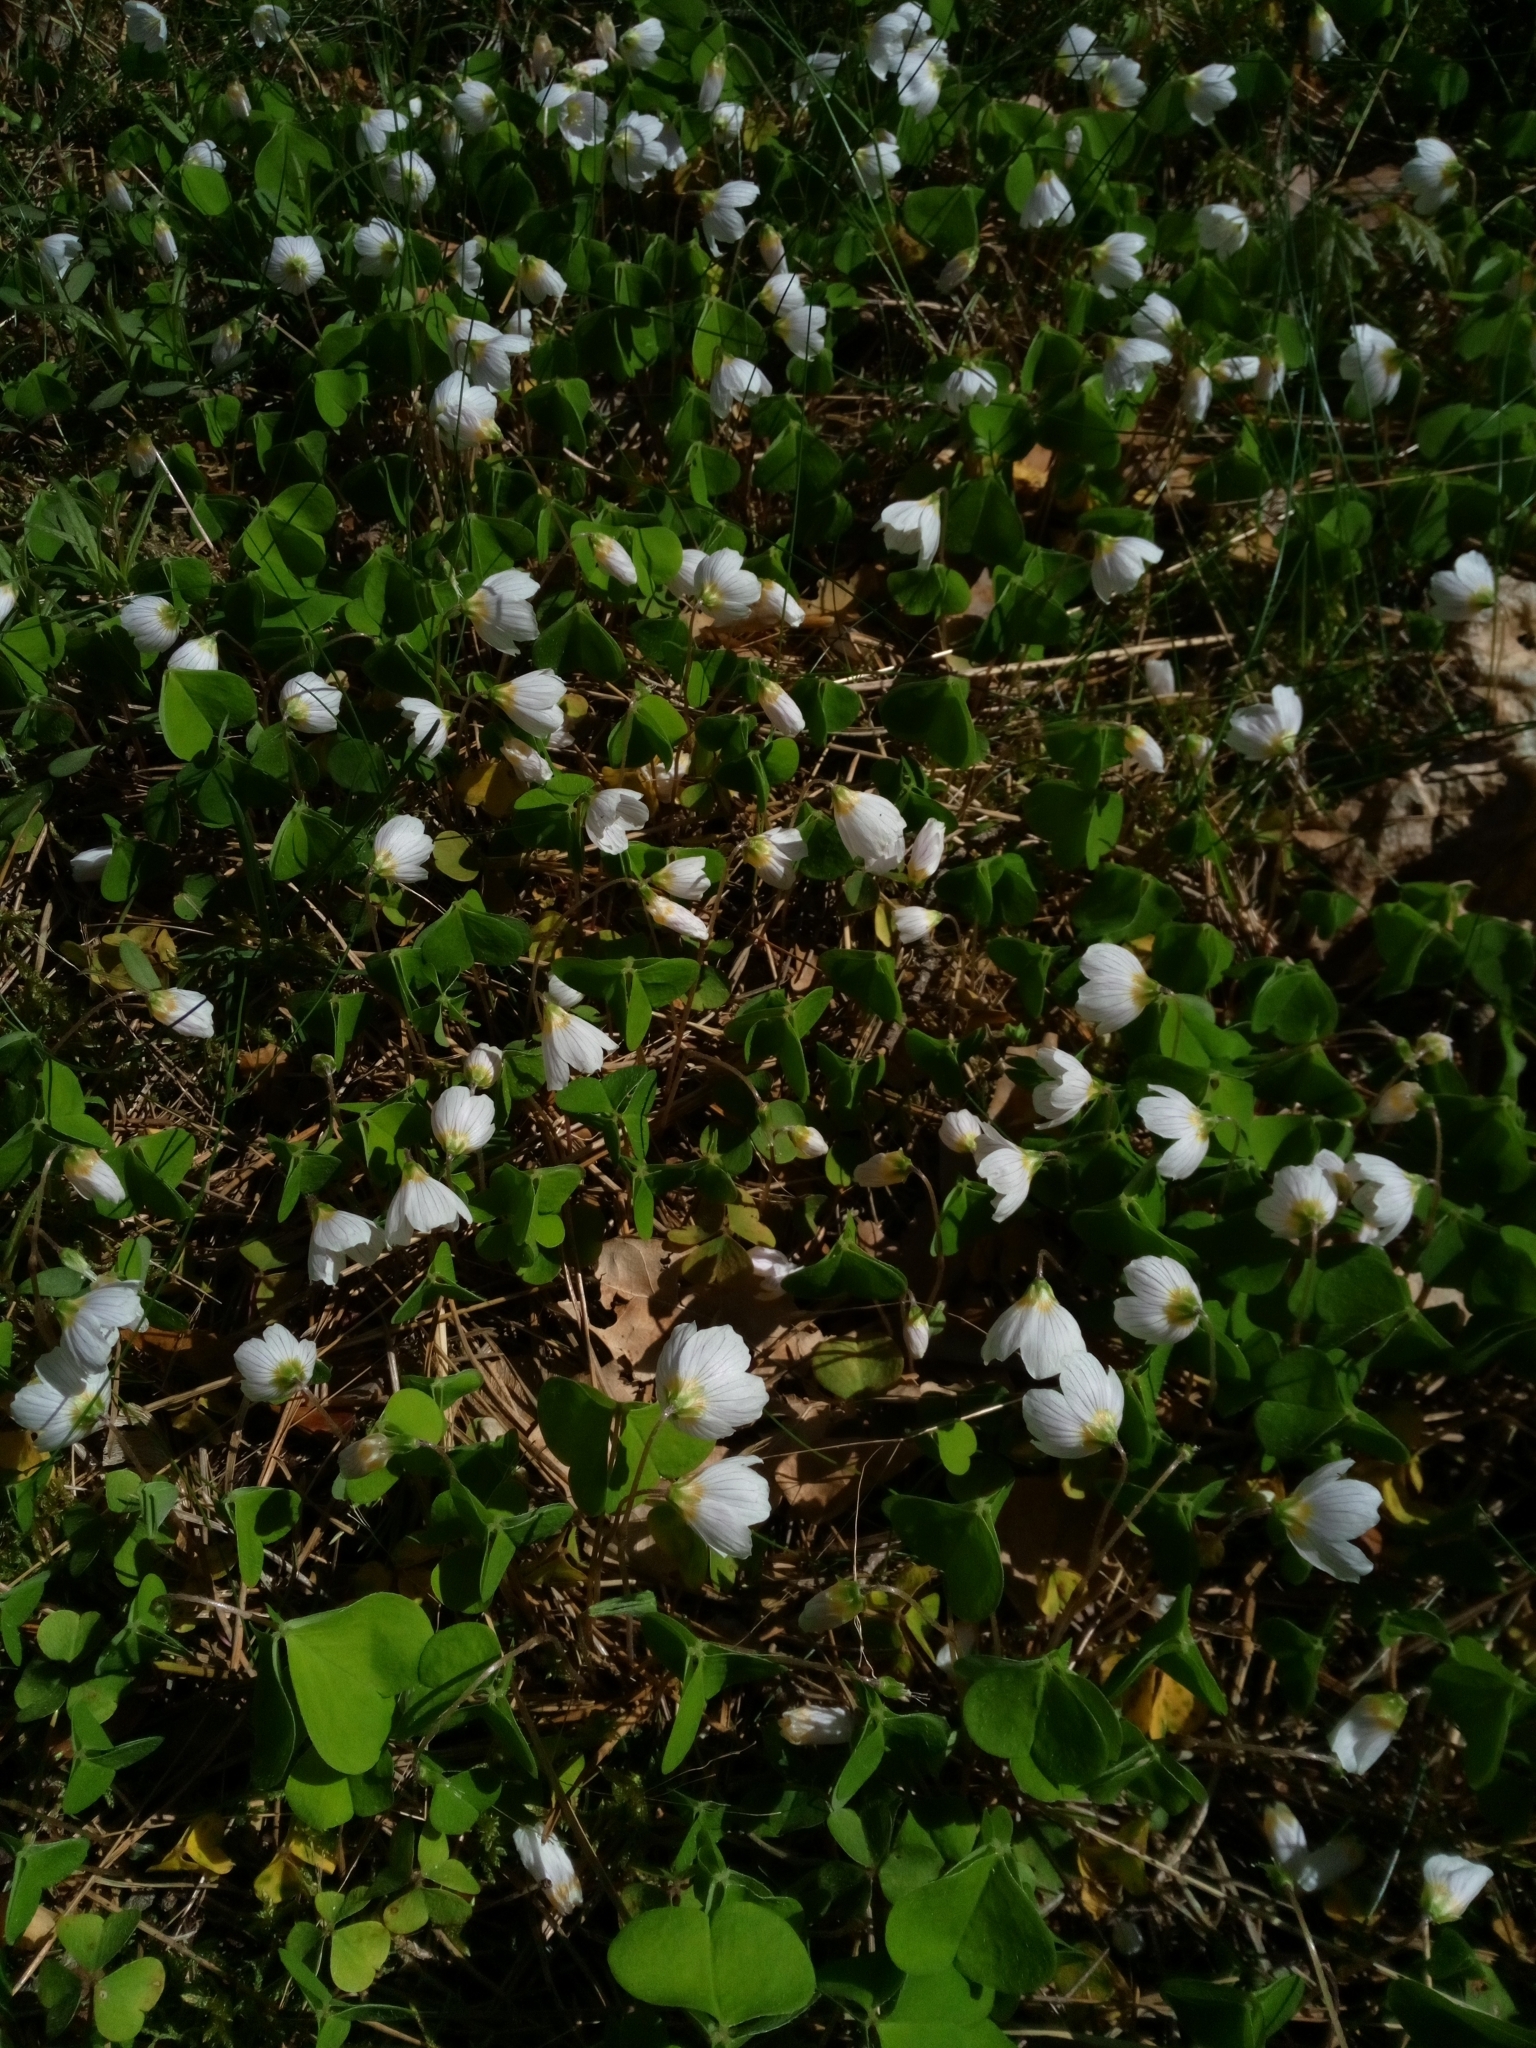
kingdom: Plantae
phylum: Tracheophyta
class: Magnoliopsida
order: Oxalidales
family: Oxalidaceae
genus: Oxalis
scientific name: Oxalis acetosella
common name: Wood-sorrel
